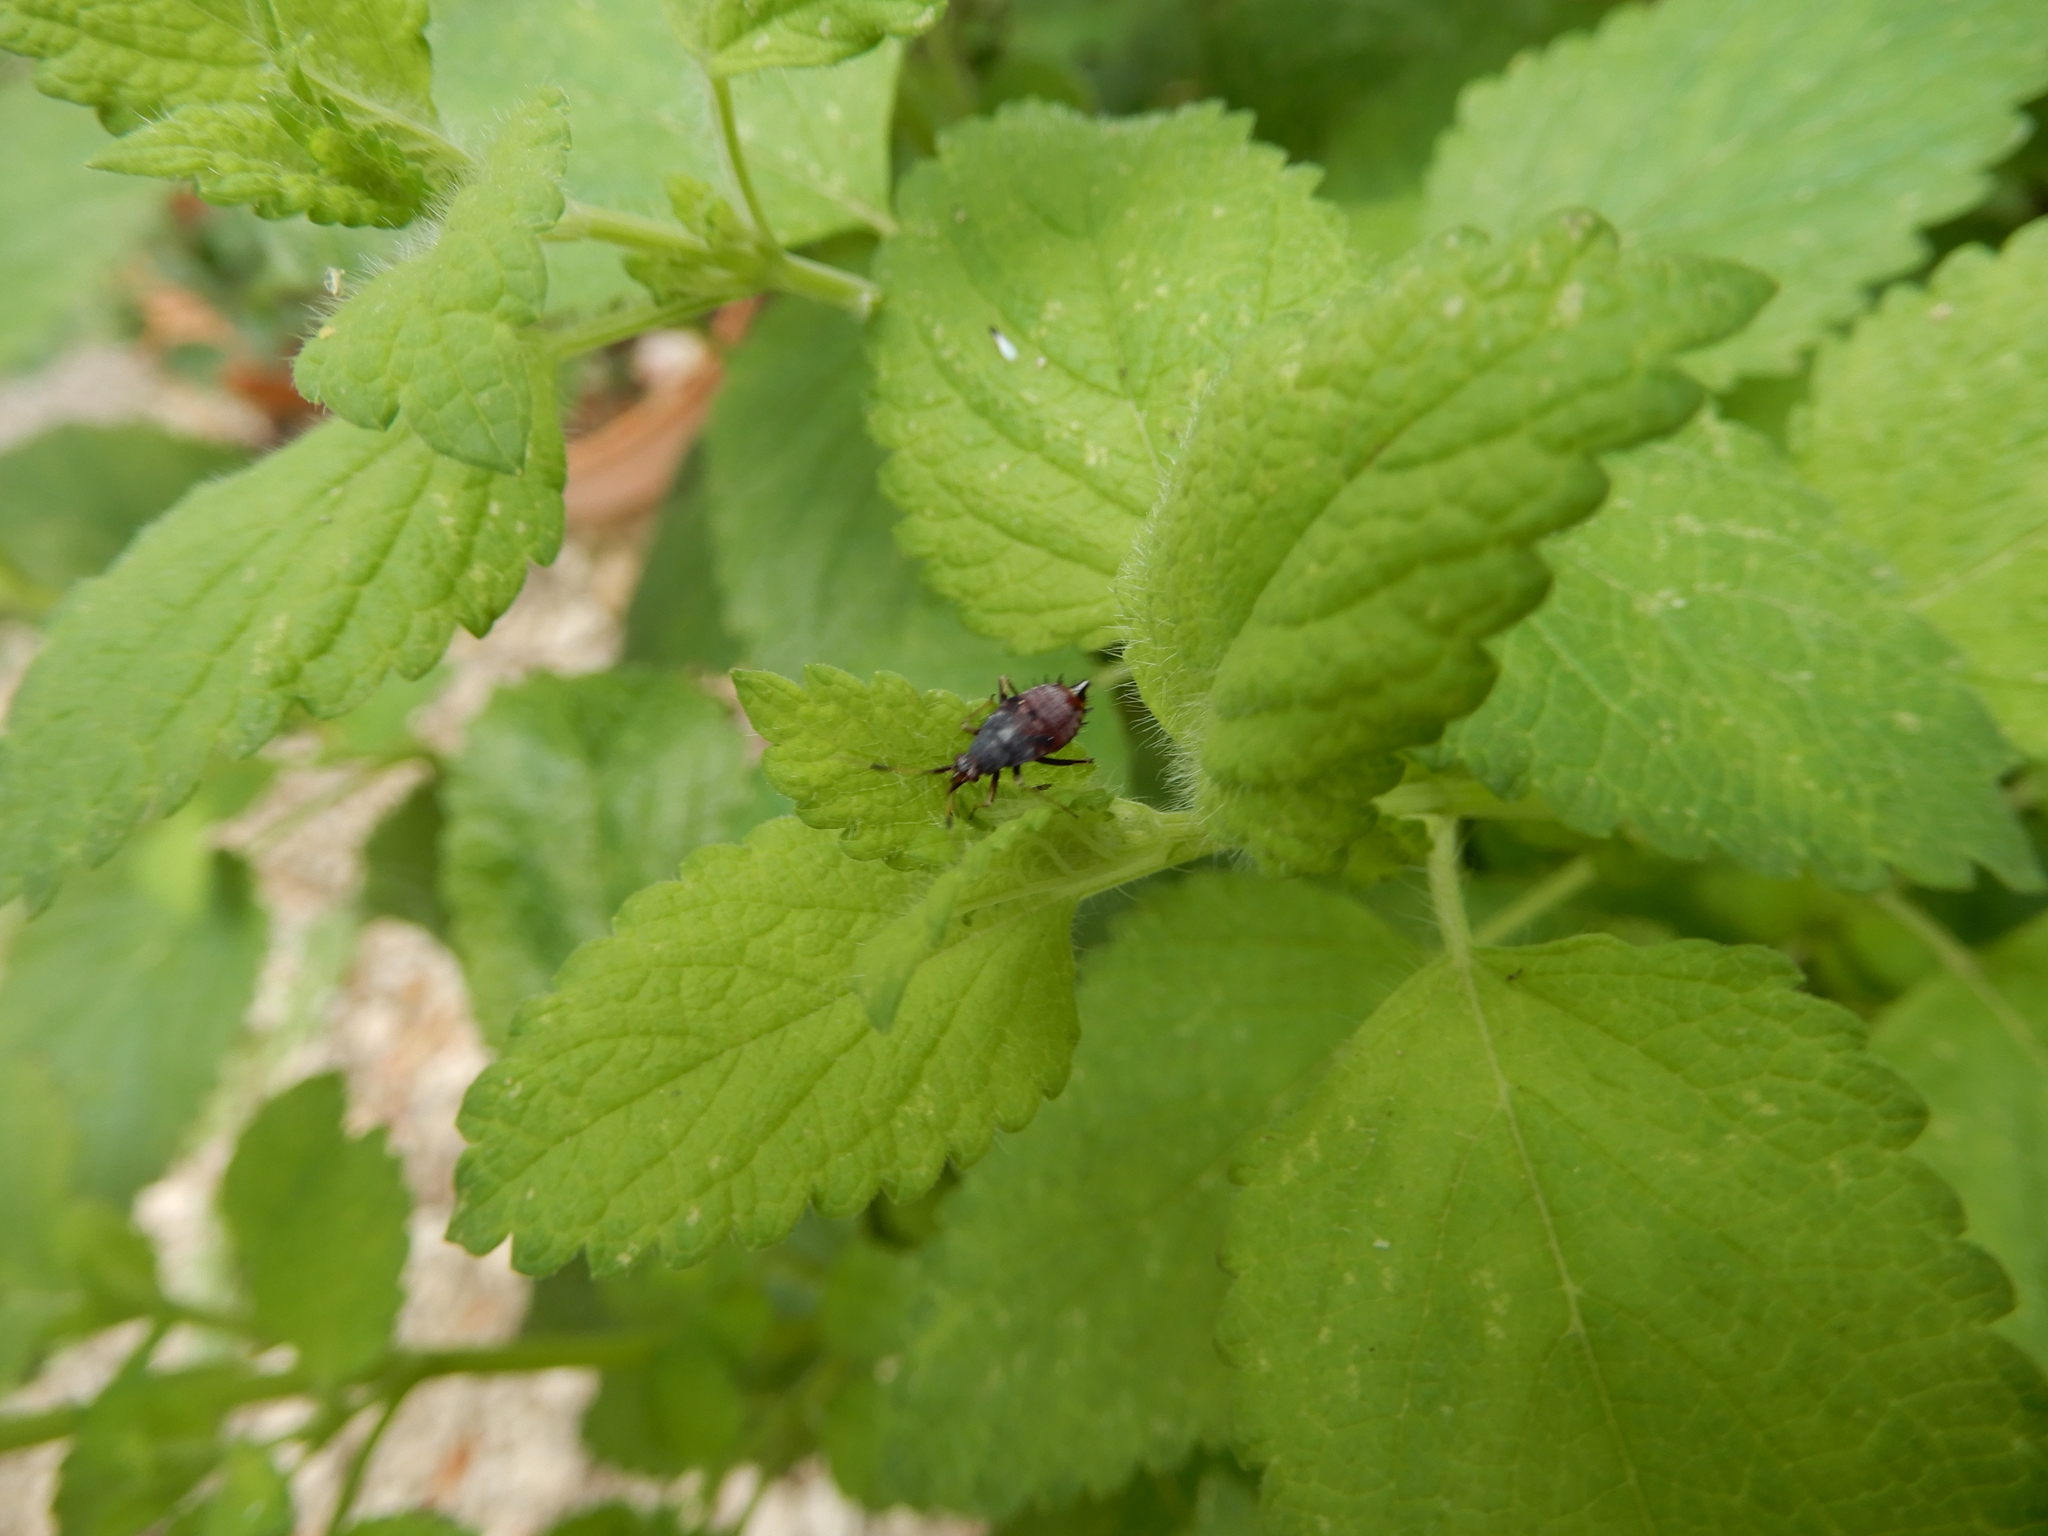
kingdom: Animalia
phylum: Arthropoda
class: Insecta
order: Hemiptera
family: Miridae
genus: Deraeocoris
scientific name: Deraeocoris ruber
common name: Plant bug
